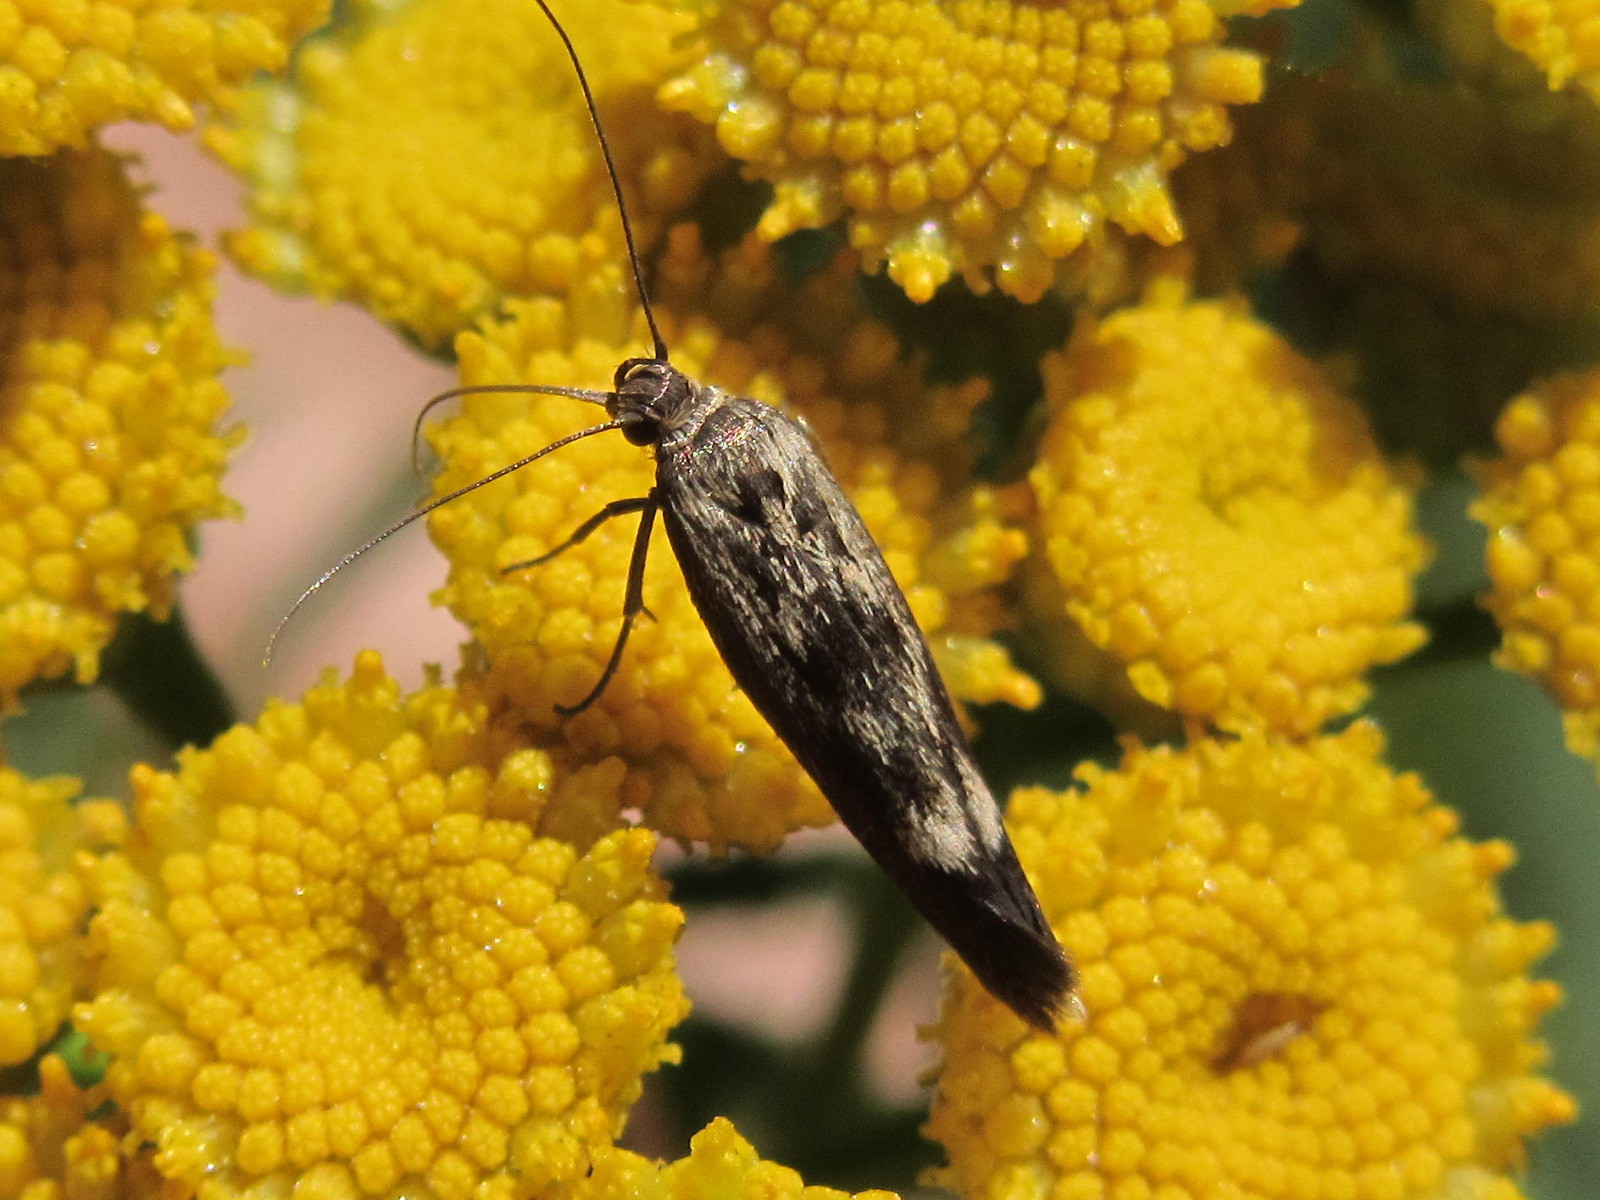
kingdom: Animalia
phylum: Arthropoda
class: Insecta
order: Lepidoptera
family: Scythrididae
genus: Scythris
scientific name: Scythris limbella
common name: Goosefoot owlet
